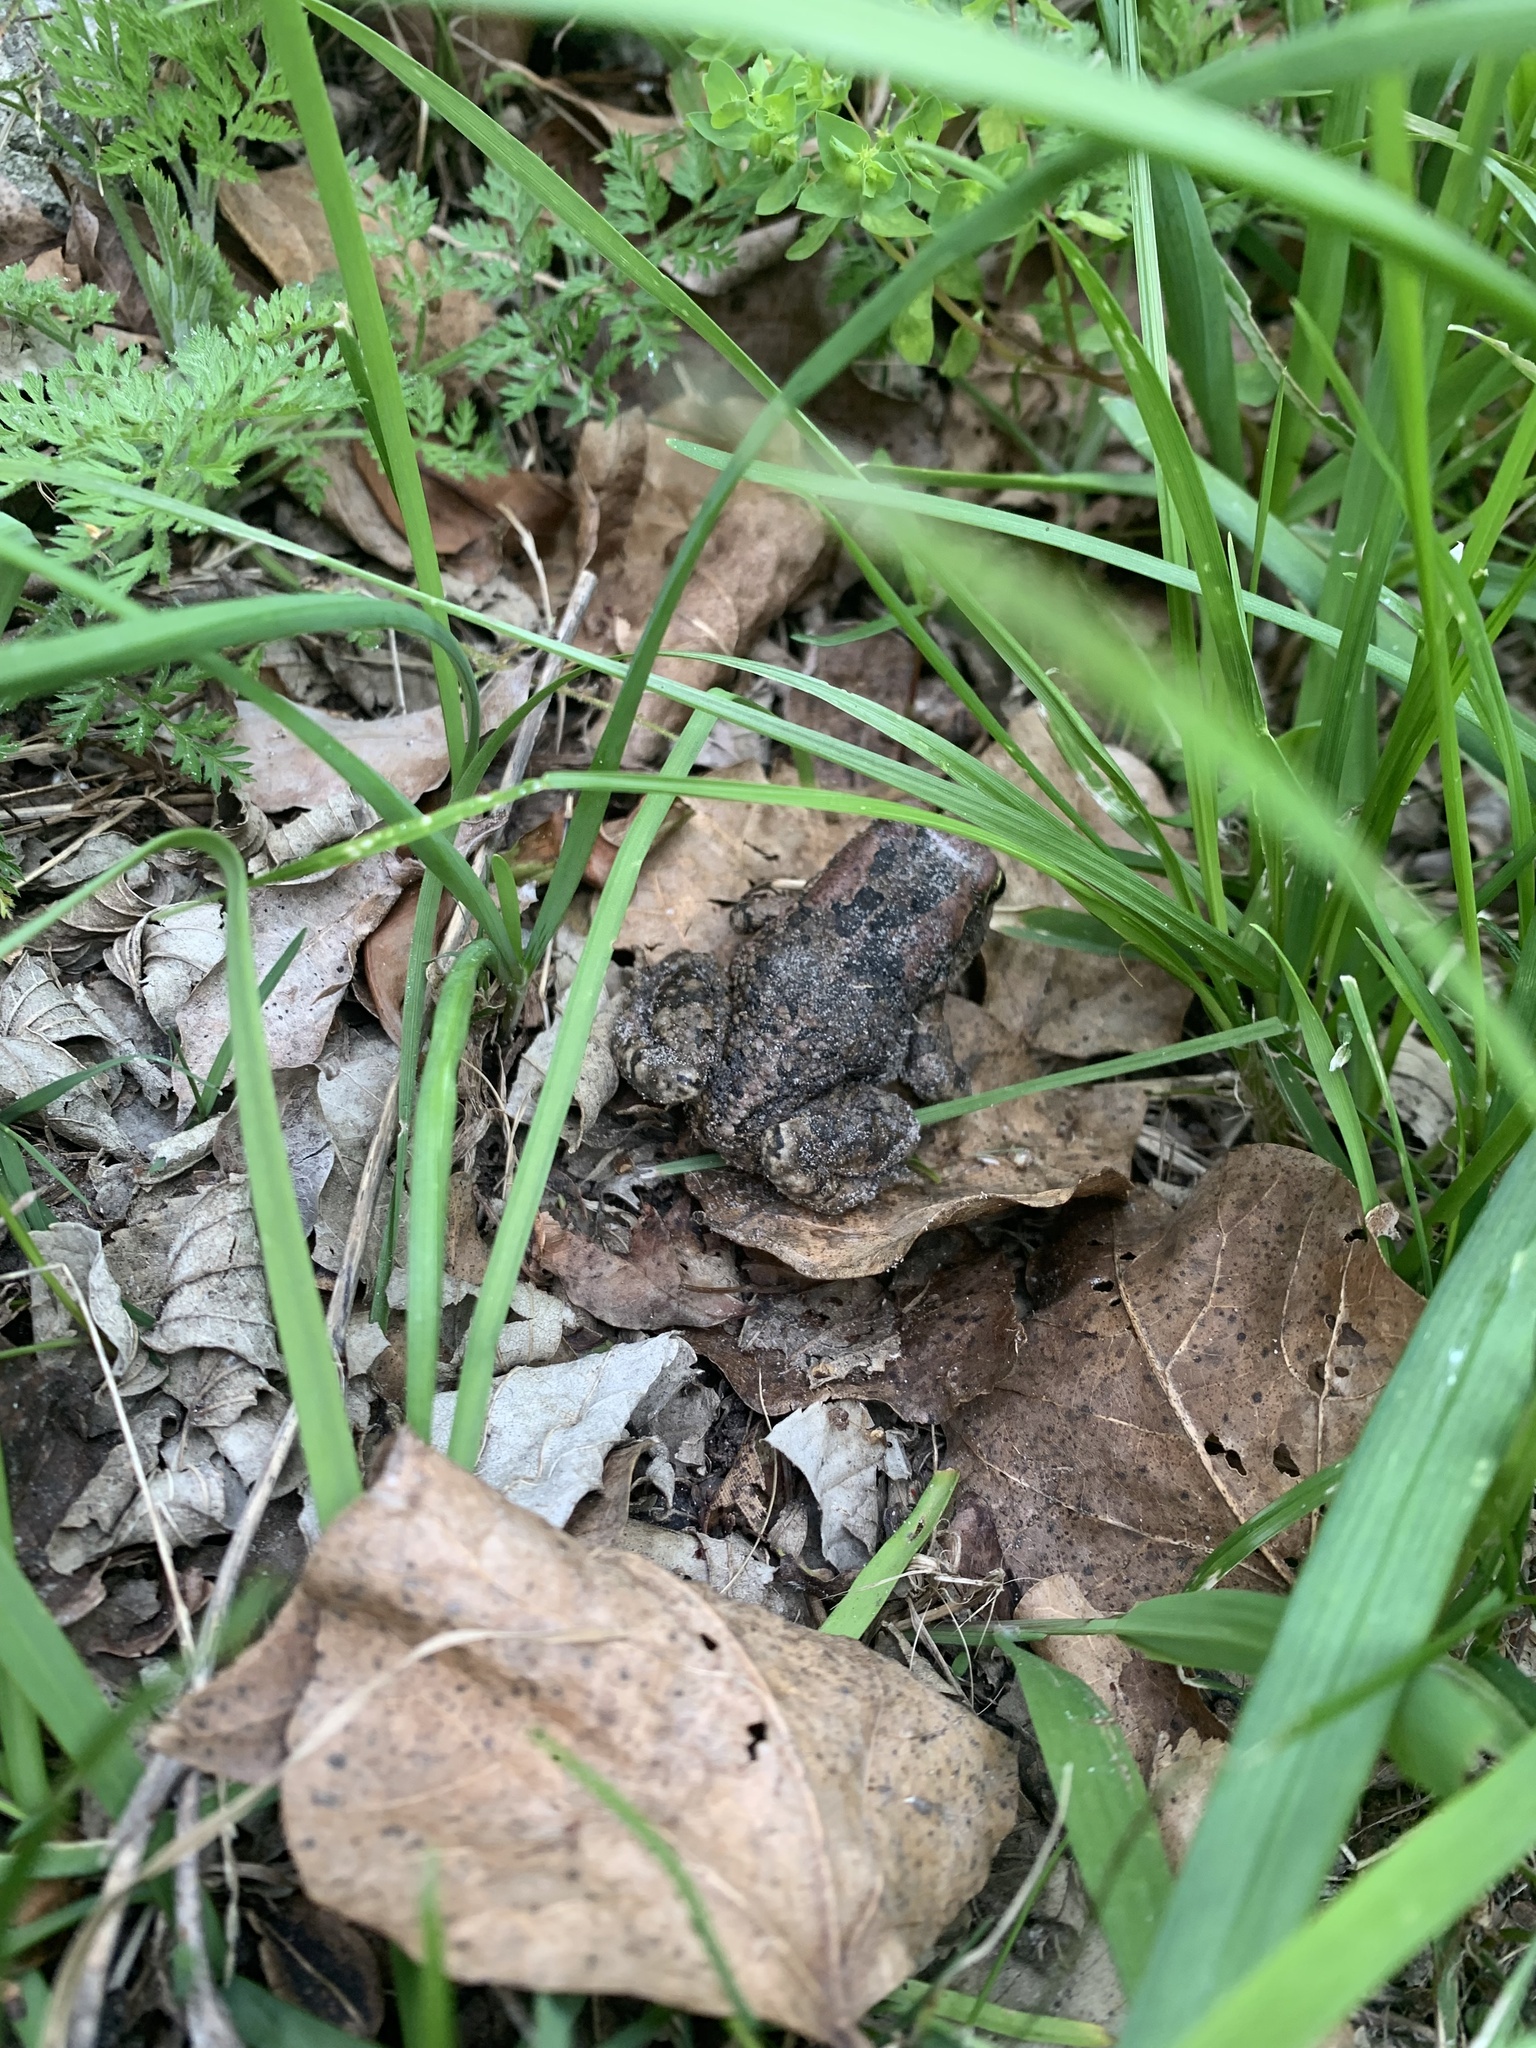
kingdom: Animalia
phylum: Chordata
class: Amphibia
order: Anura
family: Bufonidae
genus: Sclerophrys
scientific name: Sclerophrys capensis
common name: Ranger’s toad
